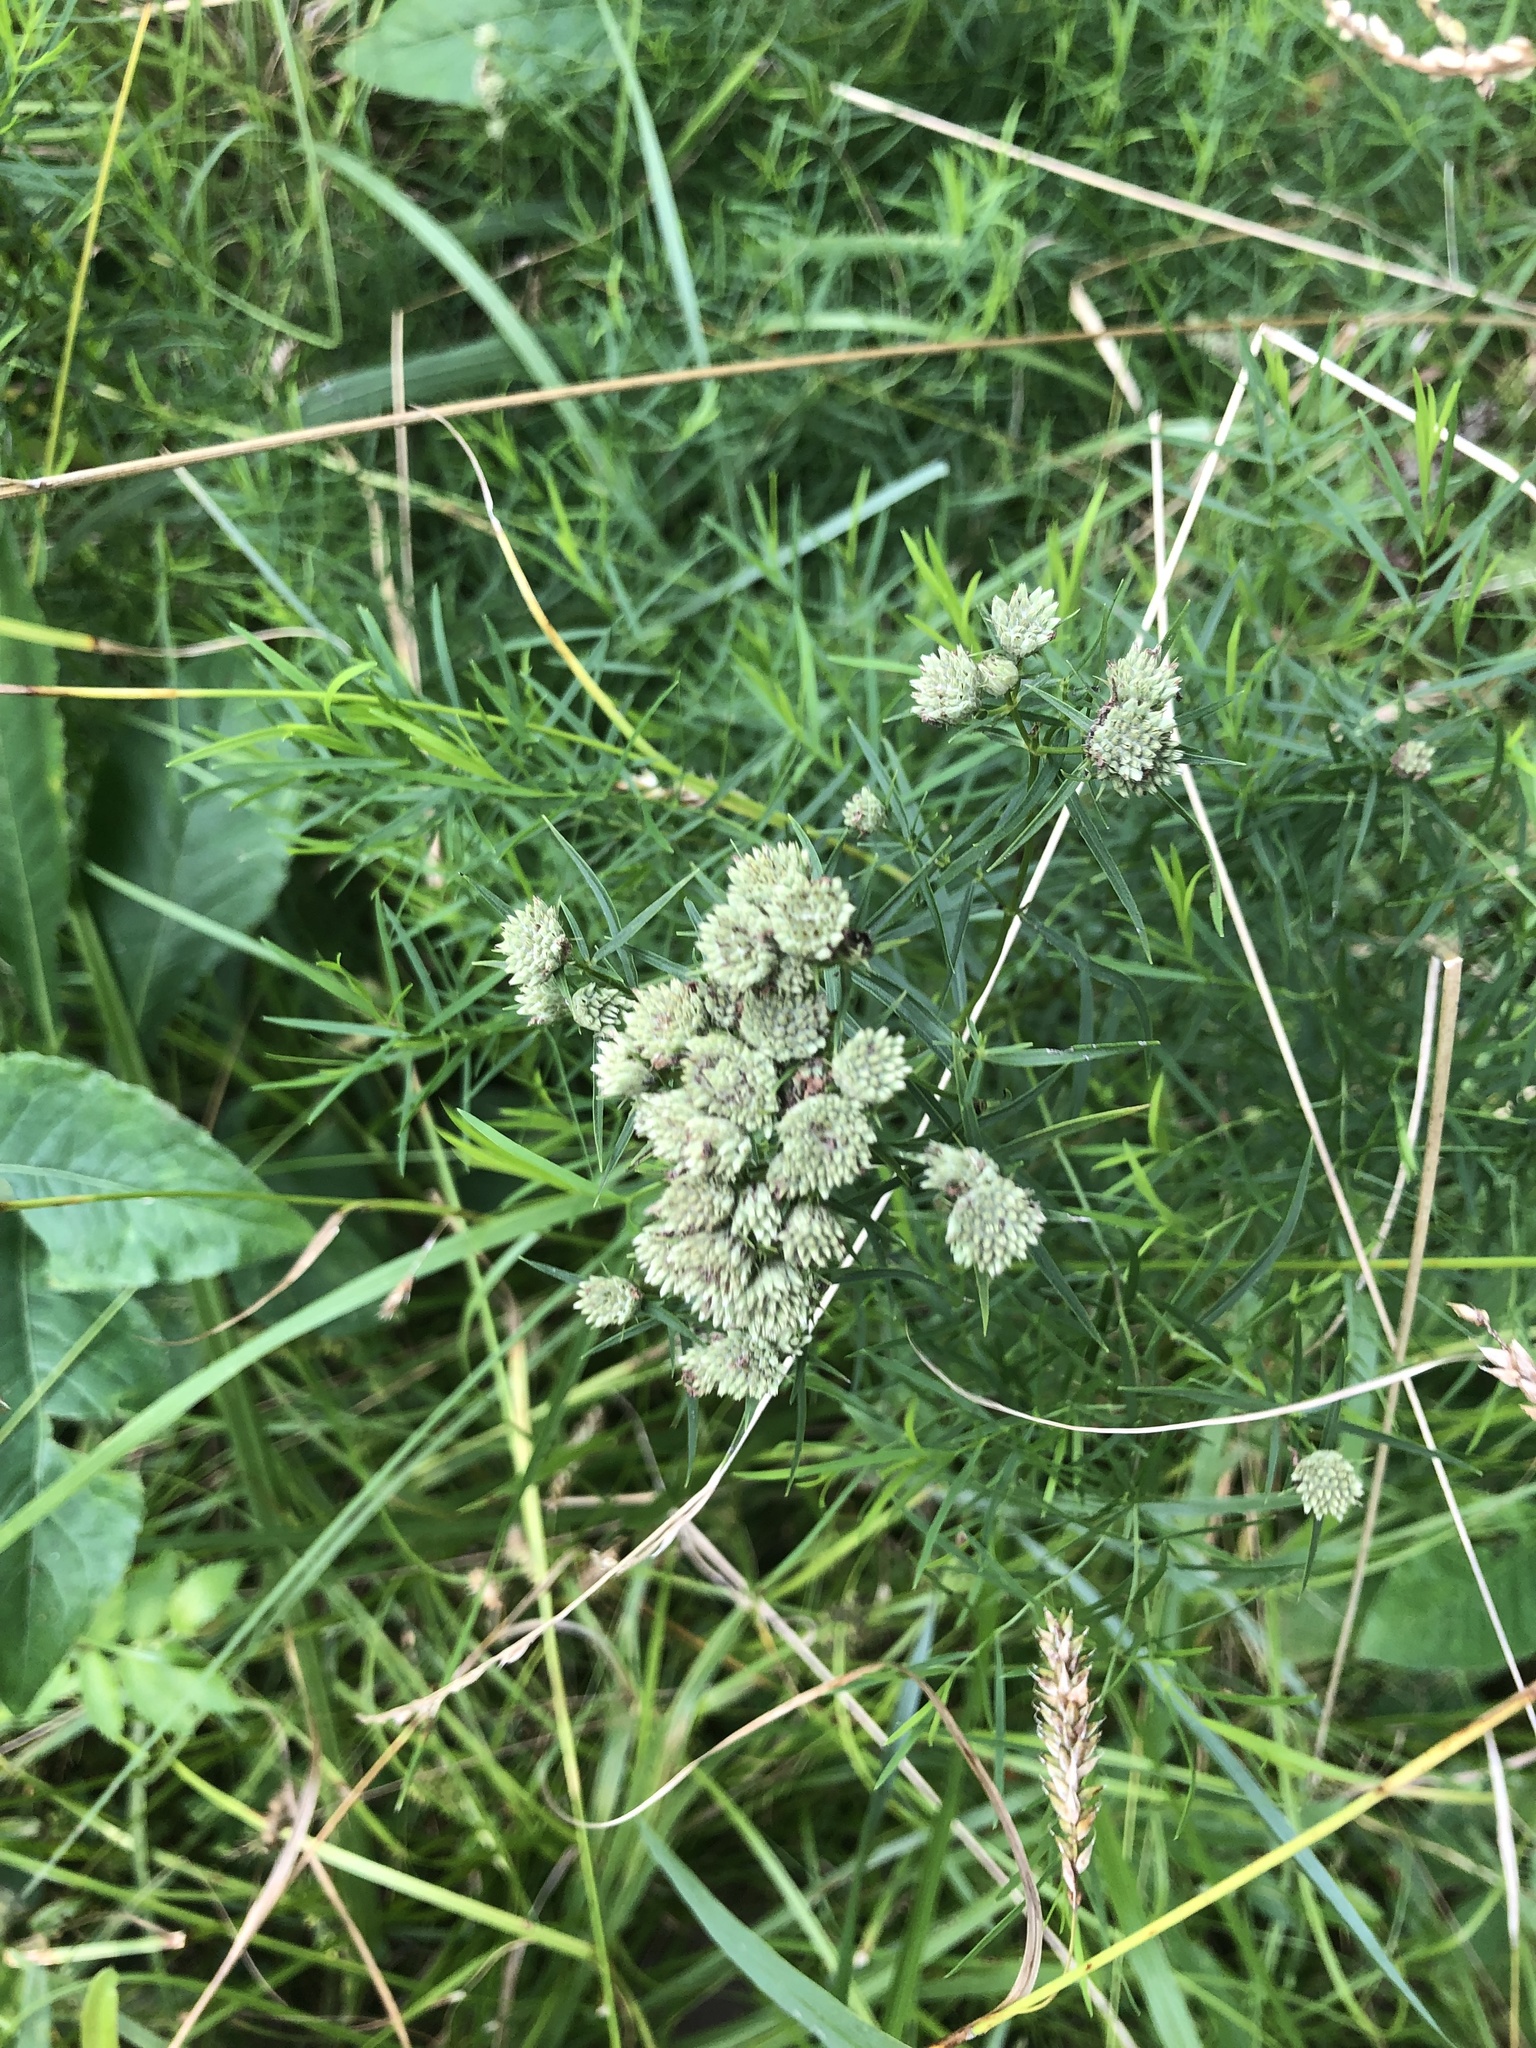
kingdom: Plantae
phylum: Tracheophyta
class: Magnoliopsida
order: Lamiales
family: Lamiaceae
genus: Pycnanthemum
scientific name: Pycnanthemum tenuifolium
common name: Narrow-leaf mountain-mint
